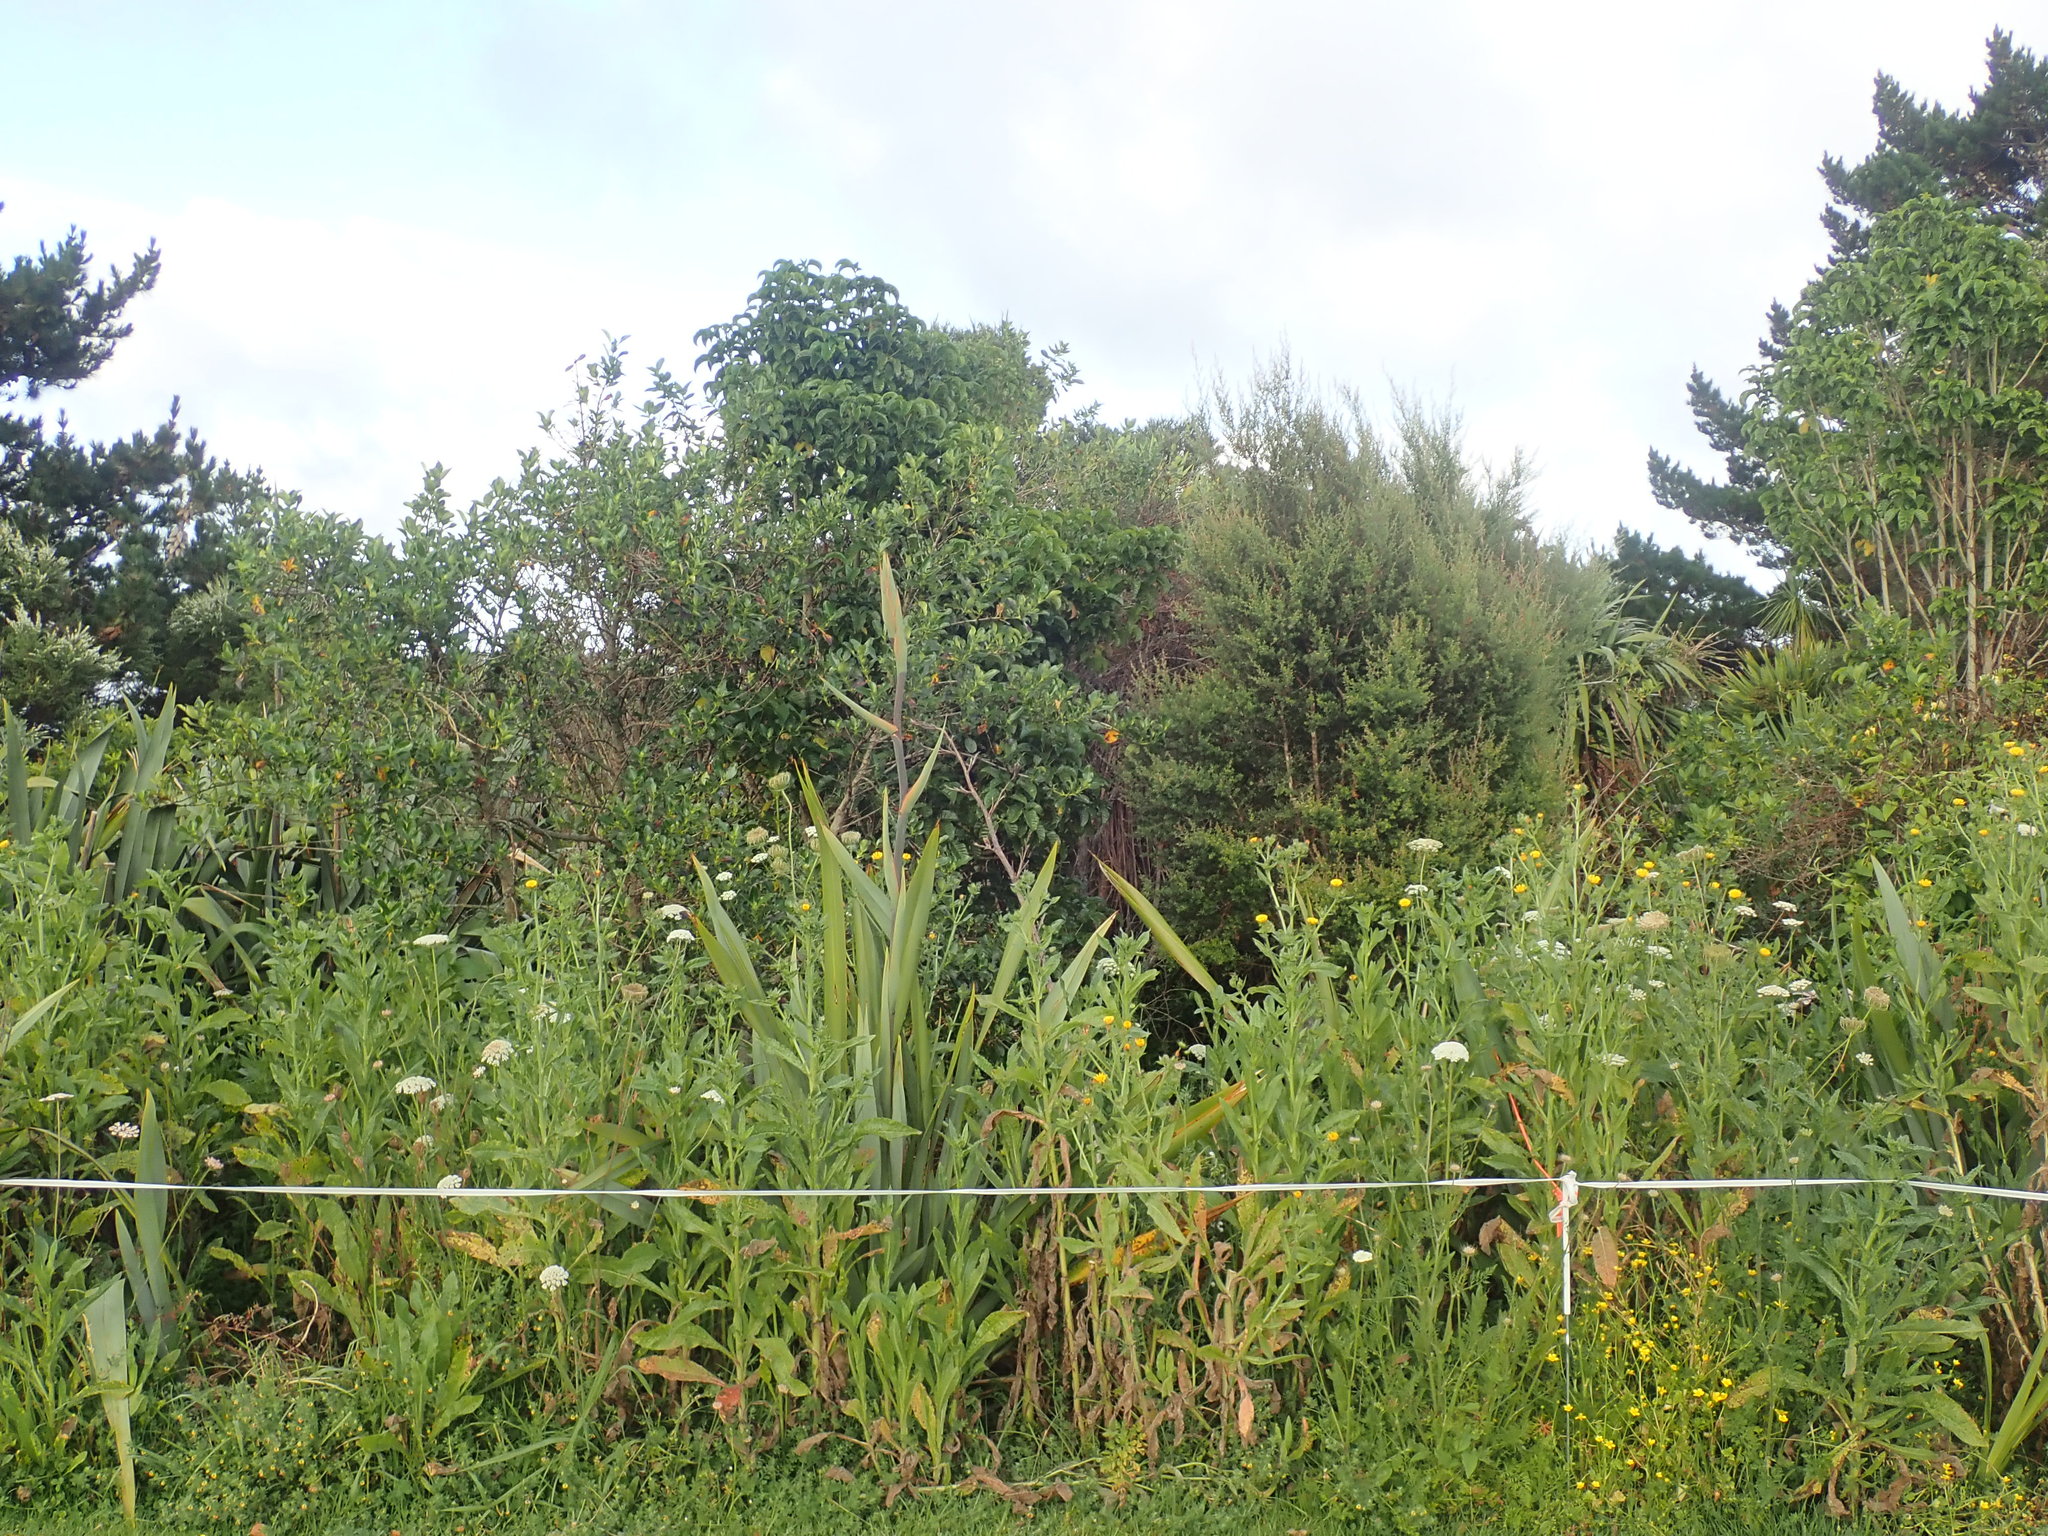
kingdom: Plantae
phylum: Tracheophyta
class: Magnoliopsida
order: Lamiales
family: Lamiaceae
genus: Vitex
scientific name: Vitex lucens
